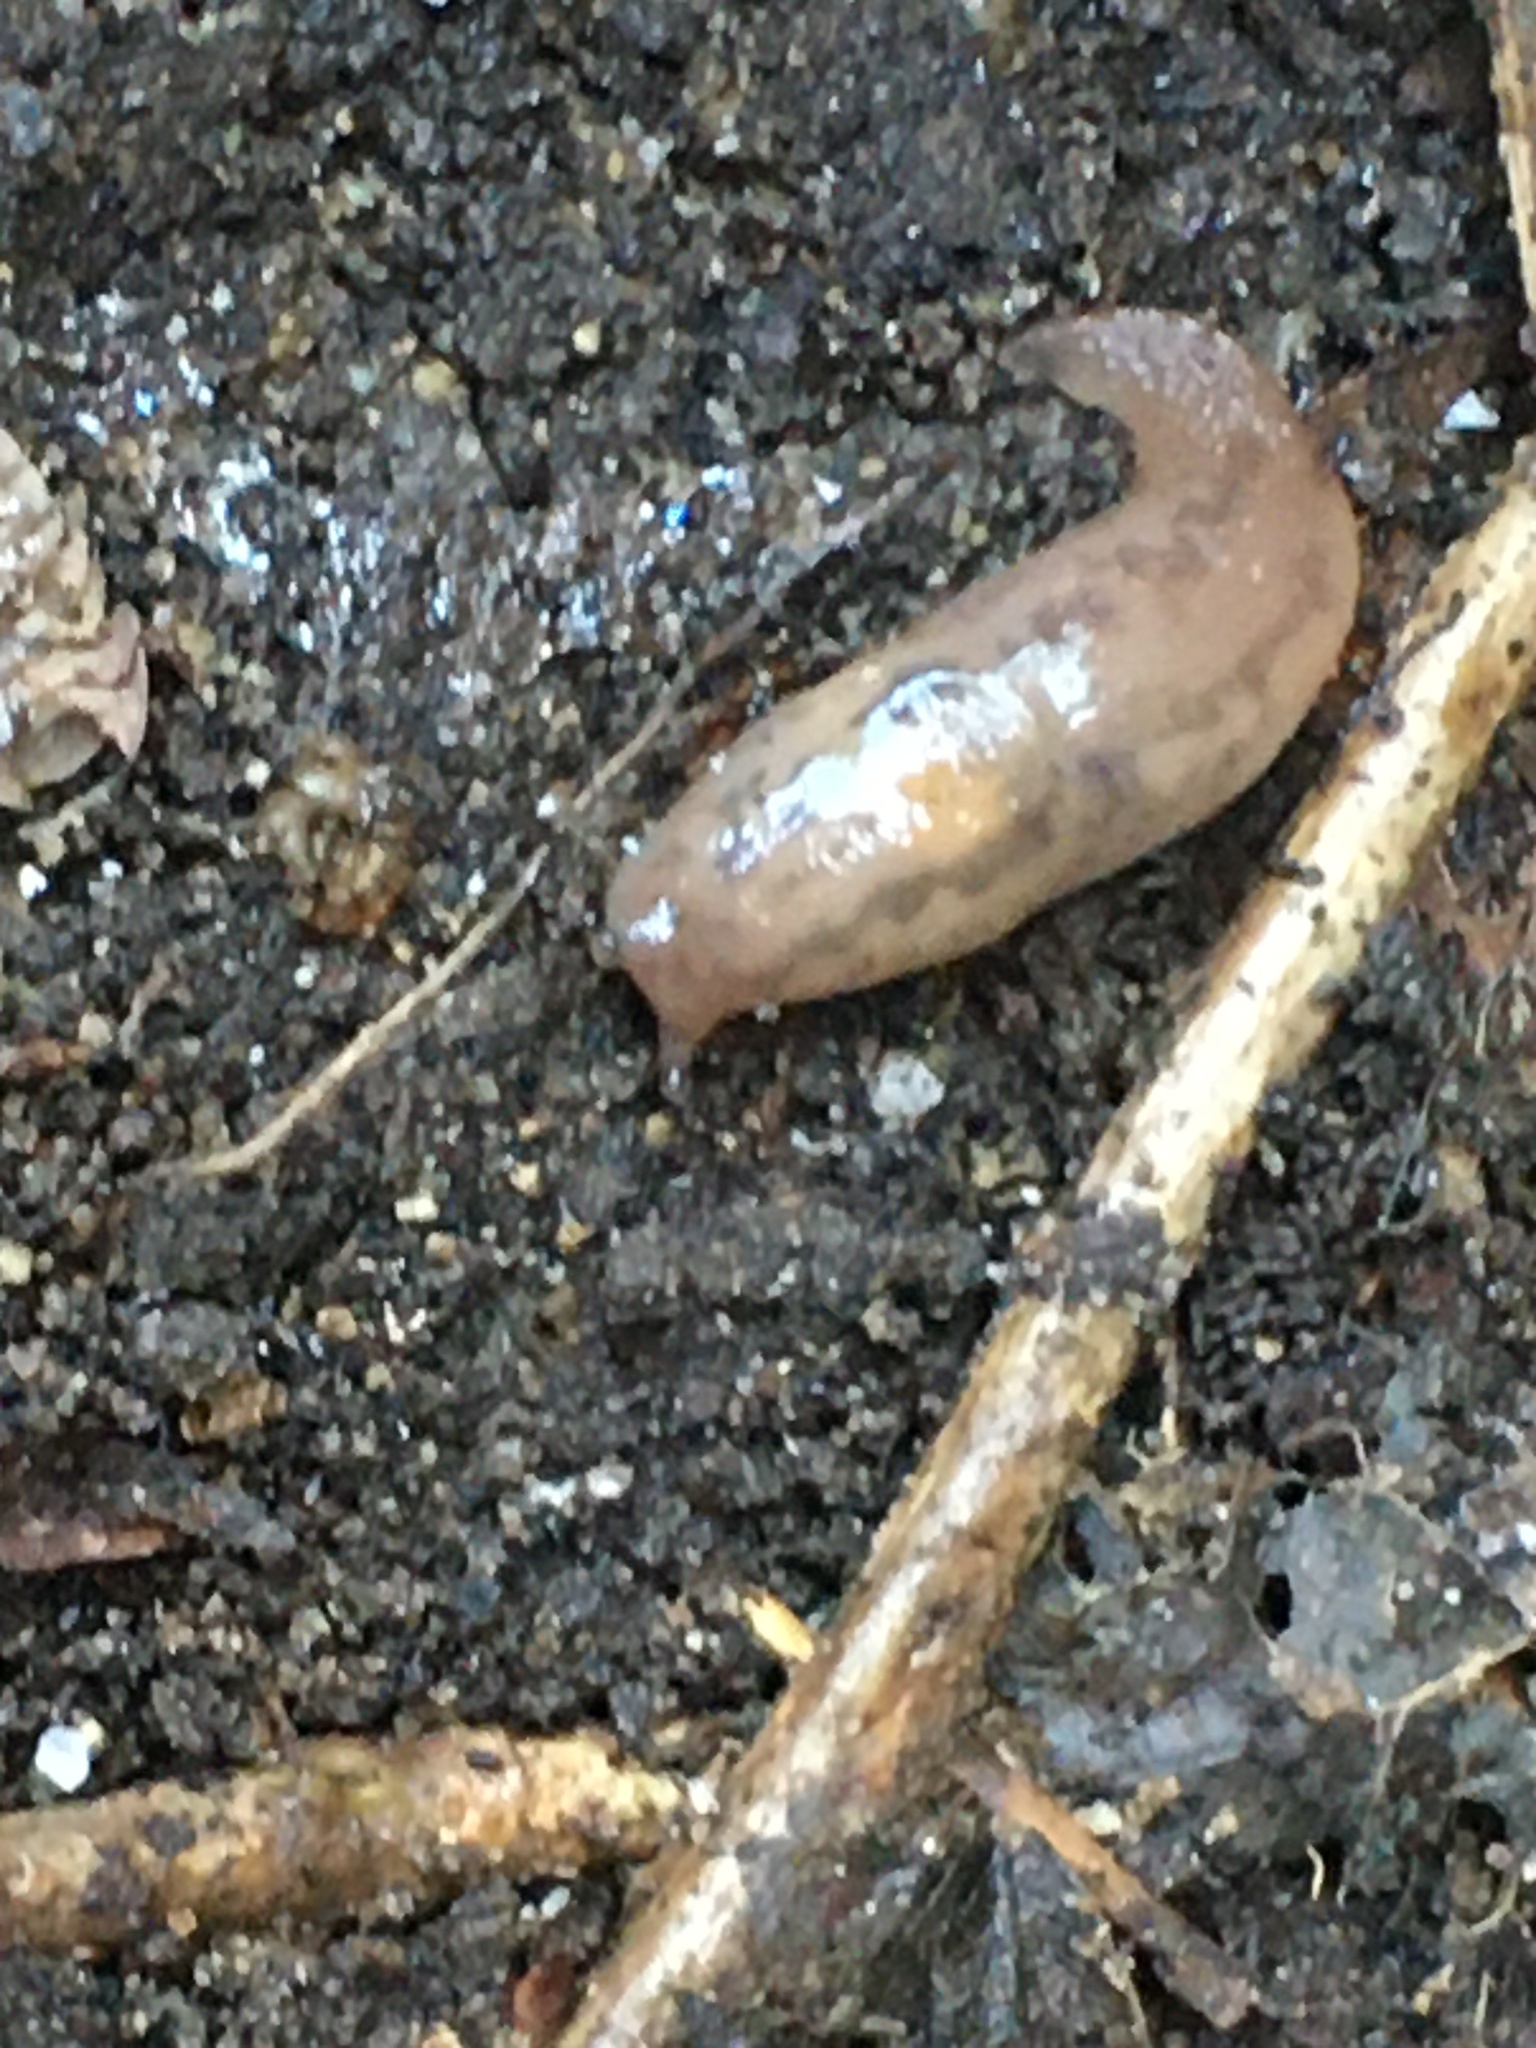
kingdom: Animalia
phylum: Mollusca
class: Gastropoda
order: Stylommatophora
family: Limacidae
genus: Ambigolimax
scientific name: Ambigolimax
